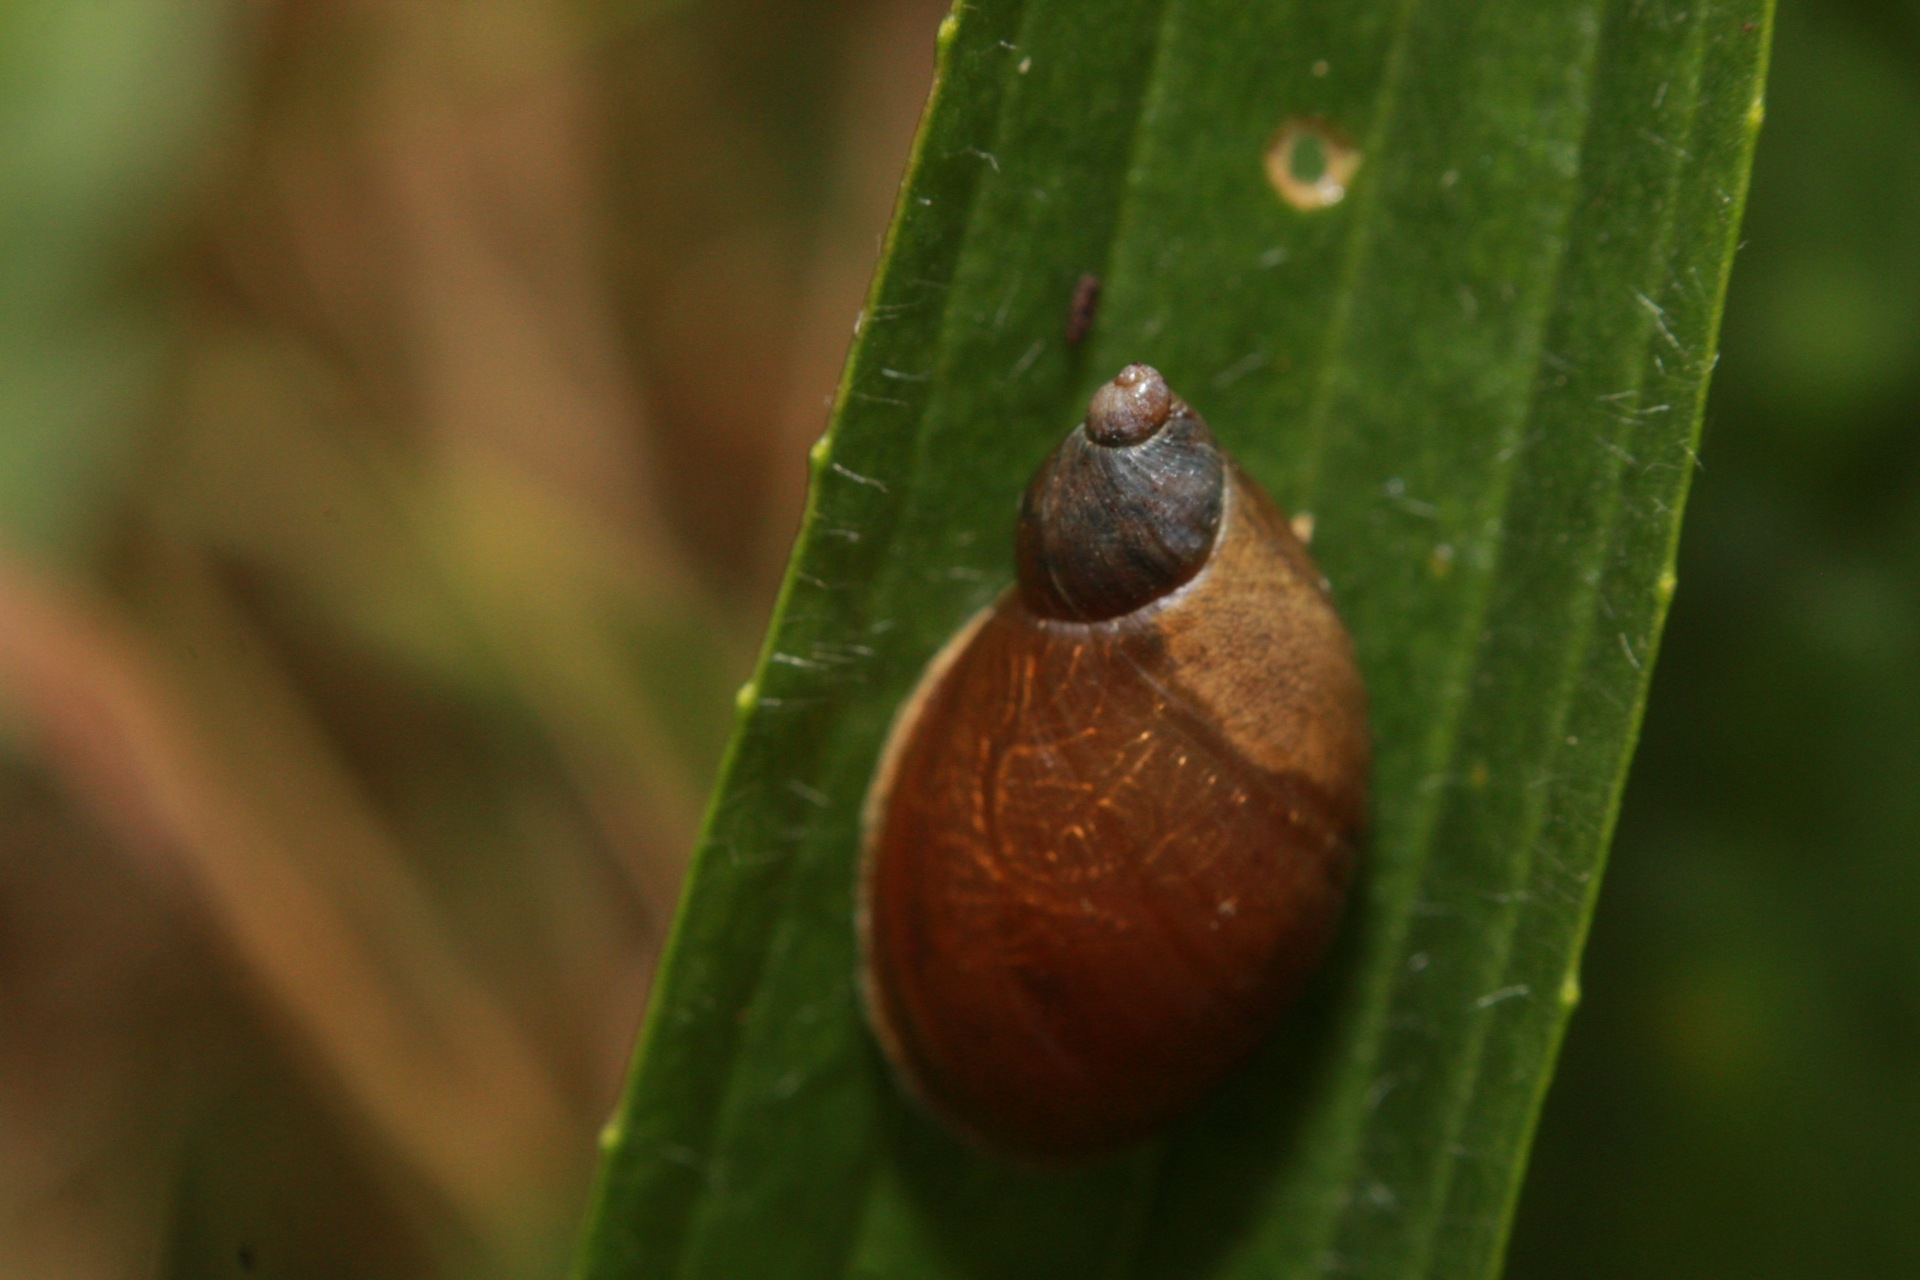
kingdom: Animalia
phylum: Mollusca
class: Gastropoda
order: Stylommatophora
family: Succineidae
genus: Succinea
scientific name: Succinea putris
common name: European ambersnail
